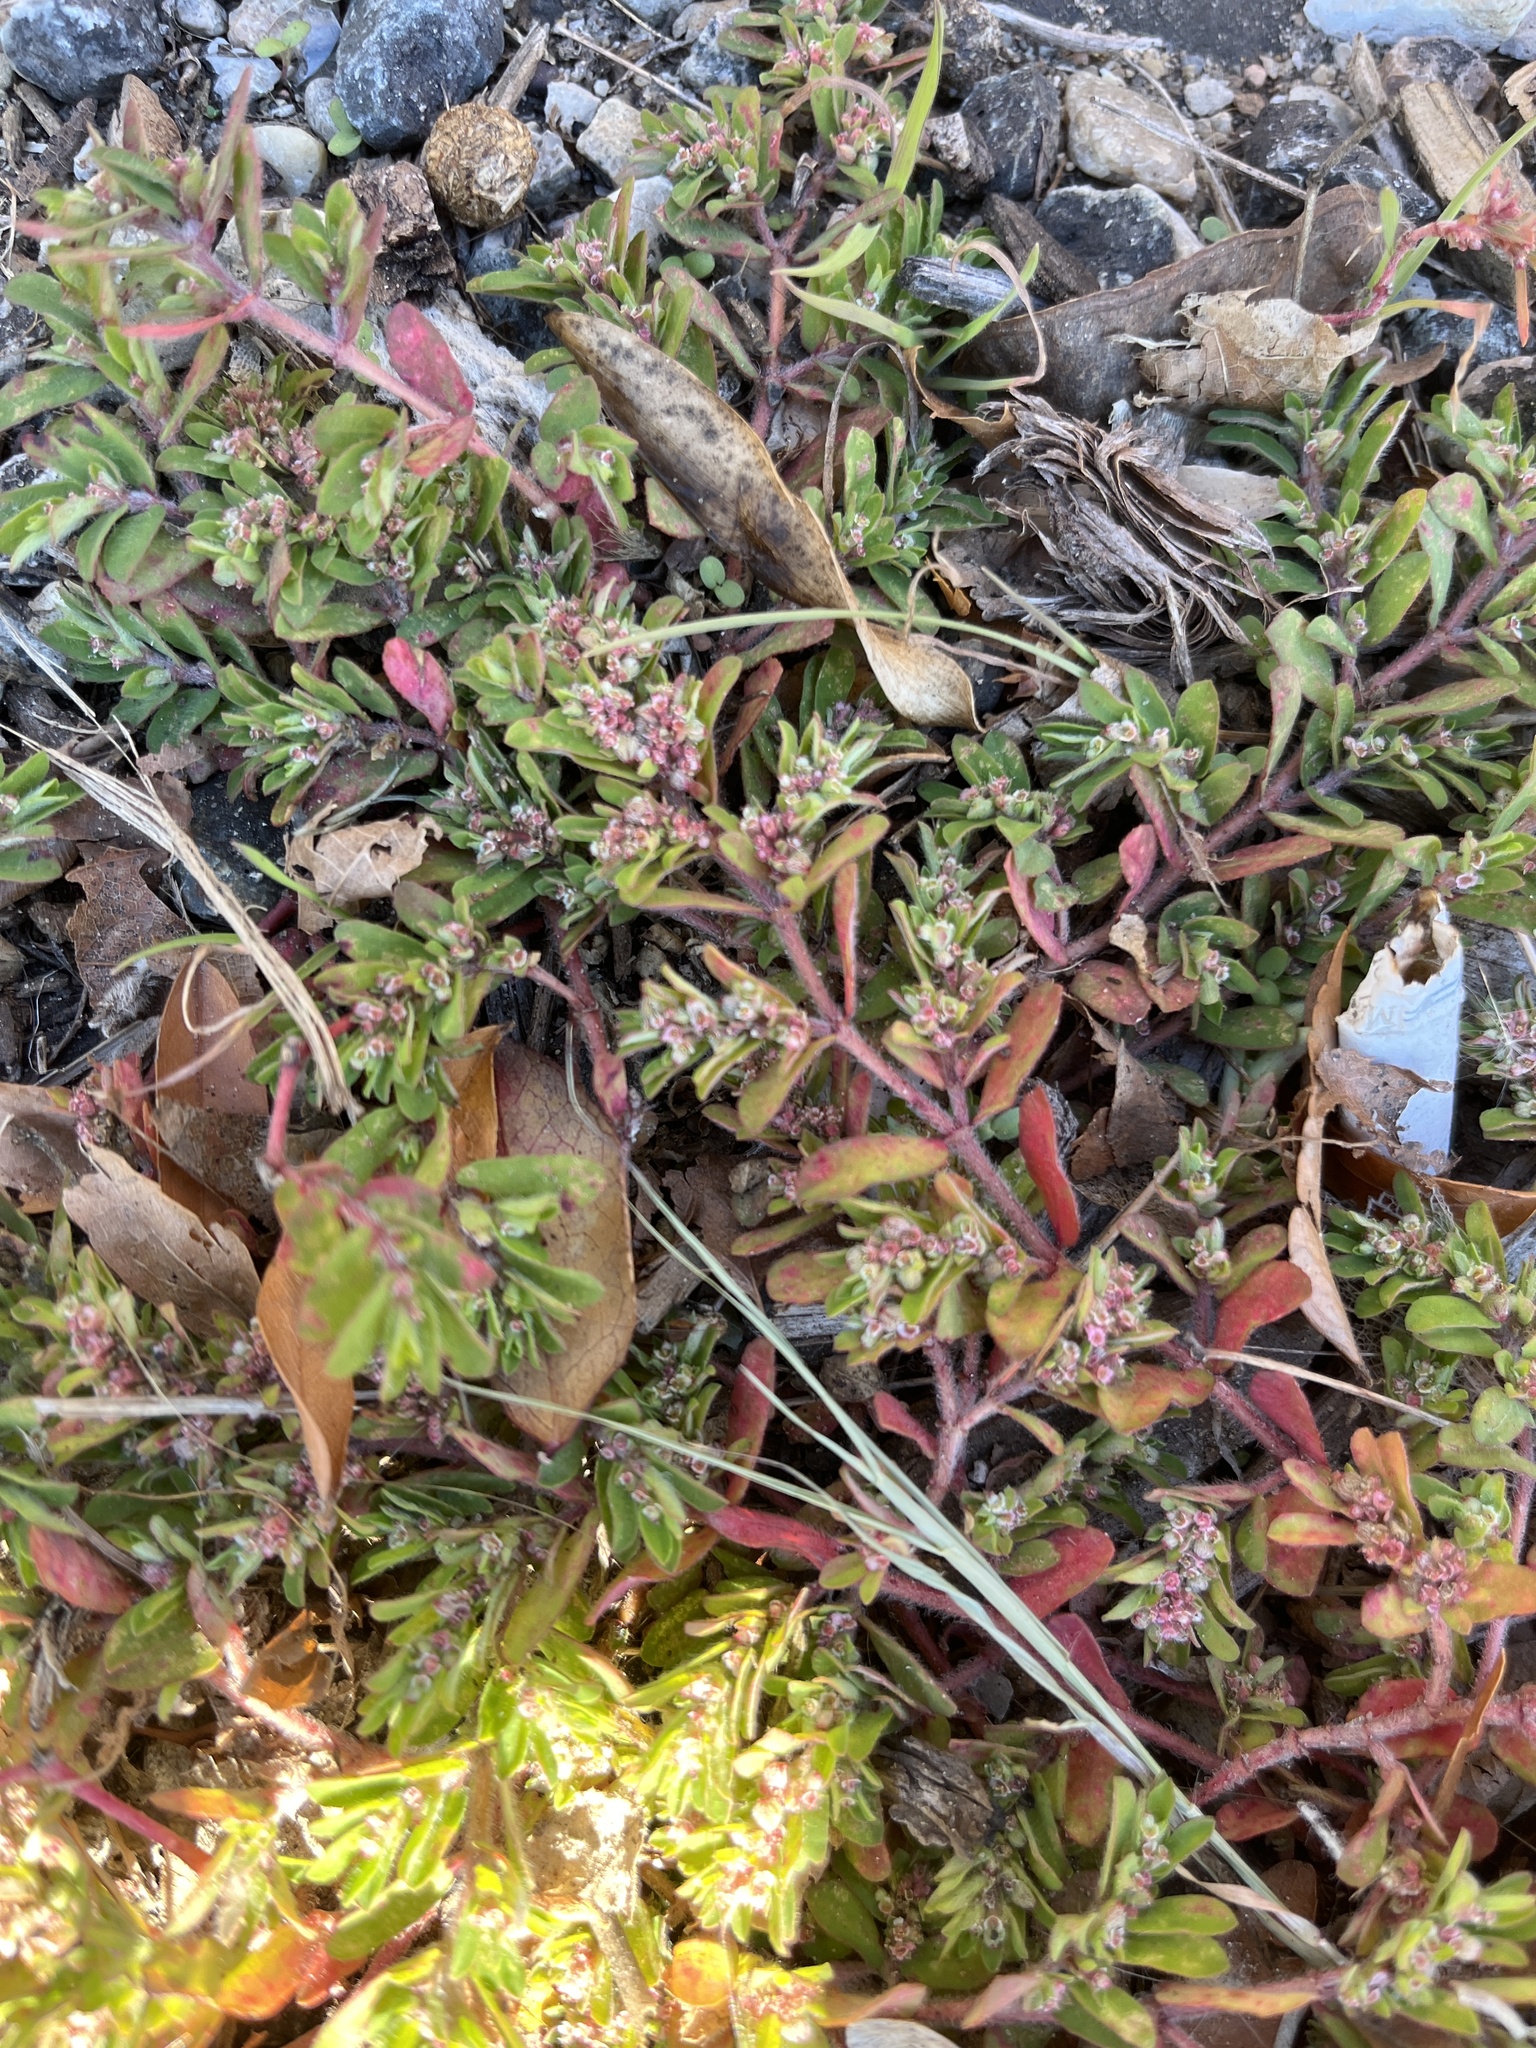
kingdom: Plantae
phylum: Tracheophyta
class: Magnoliopsida
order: Malpighiales
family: Euphorbiaceae
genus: Euphorbia
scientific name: Euphorbia maculata
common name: Spotted spurge
